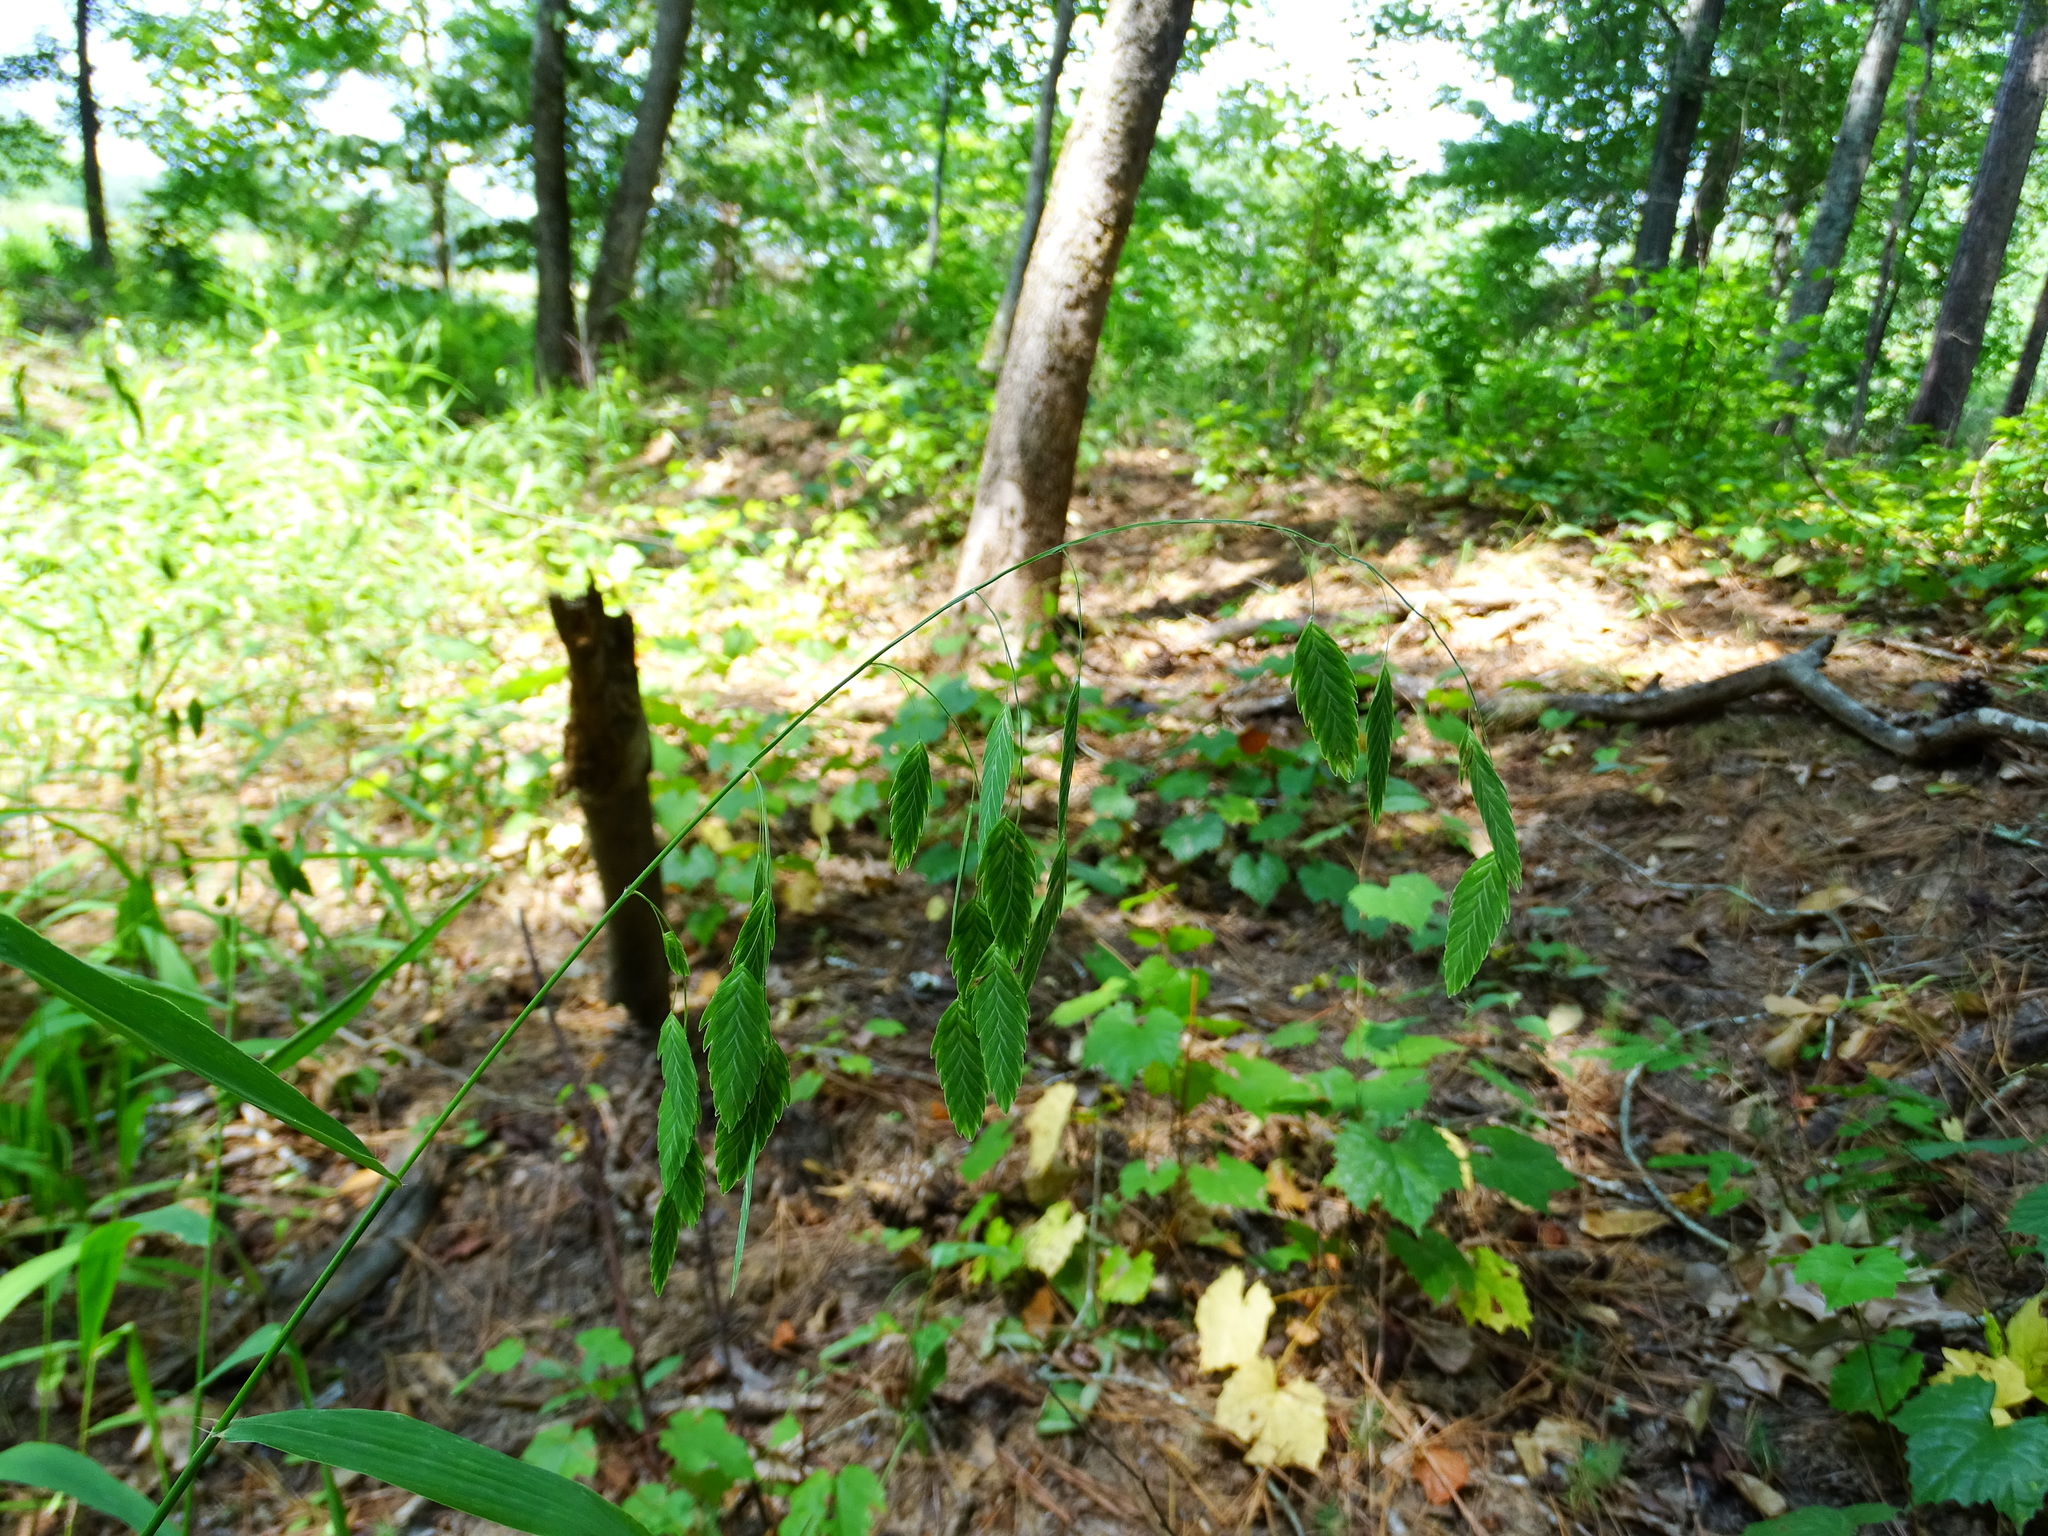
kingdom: Plantae
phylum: Tracheophyta
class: Liliopsida
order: Poales
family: Poaceae
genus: Chasmanthium
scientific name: Chasmanthium latifolium
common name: Broad-leaved chasmanthium
